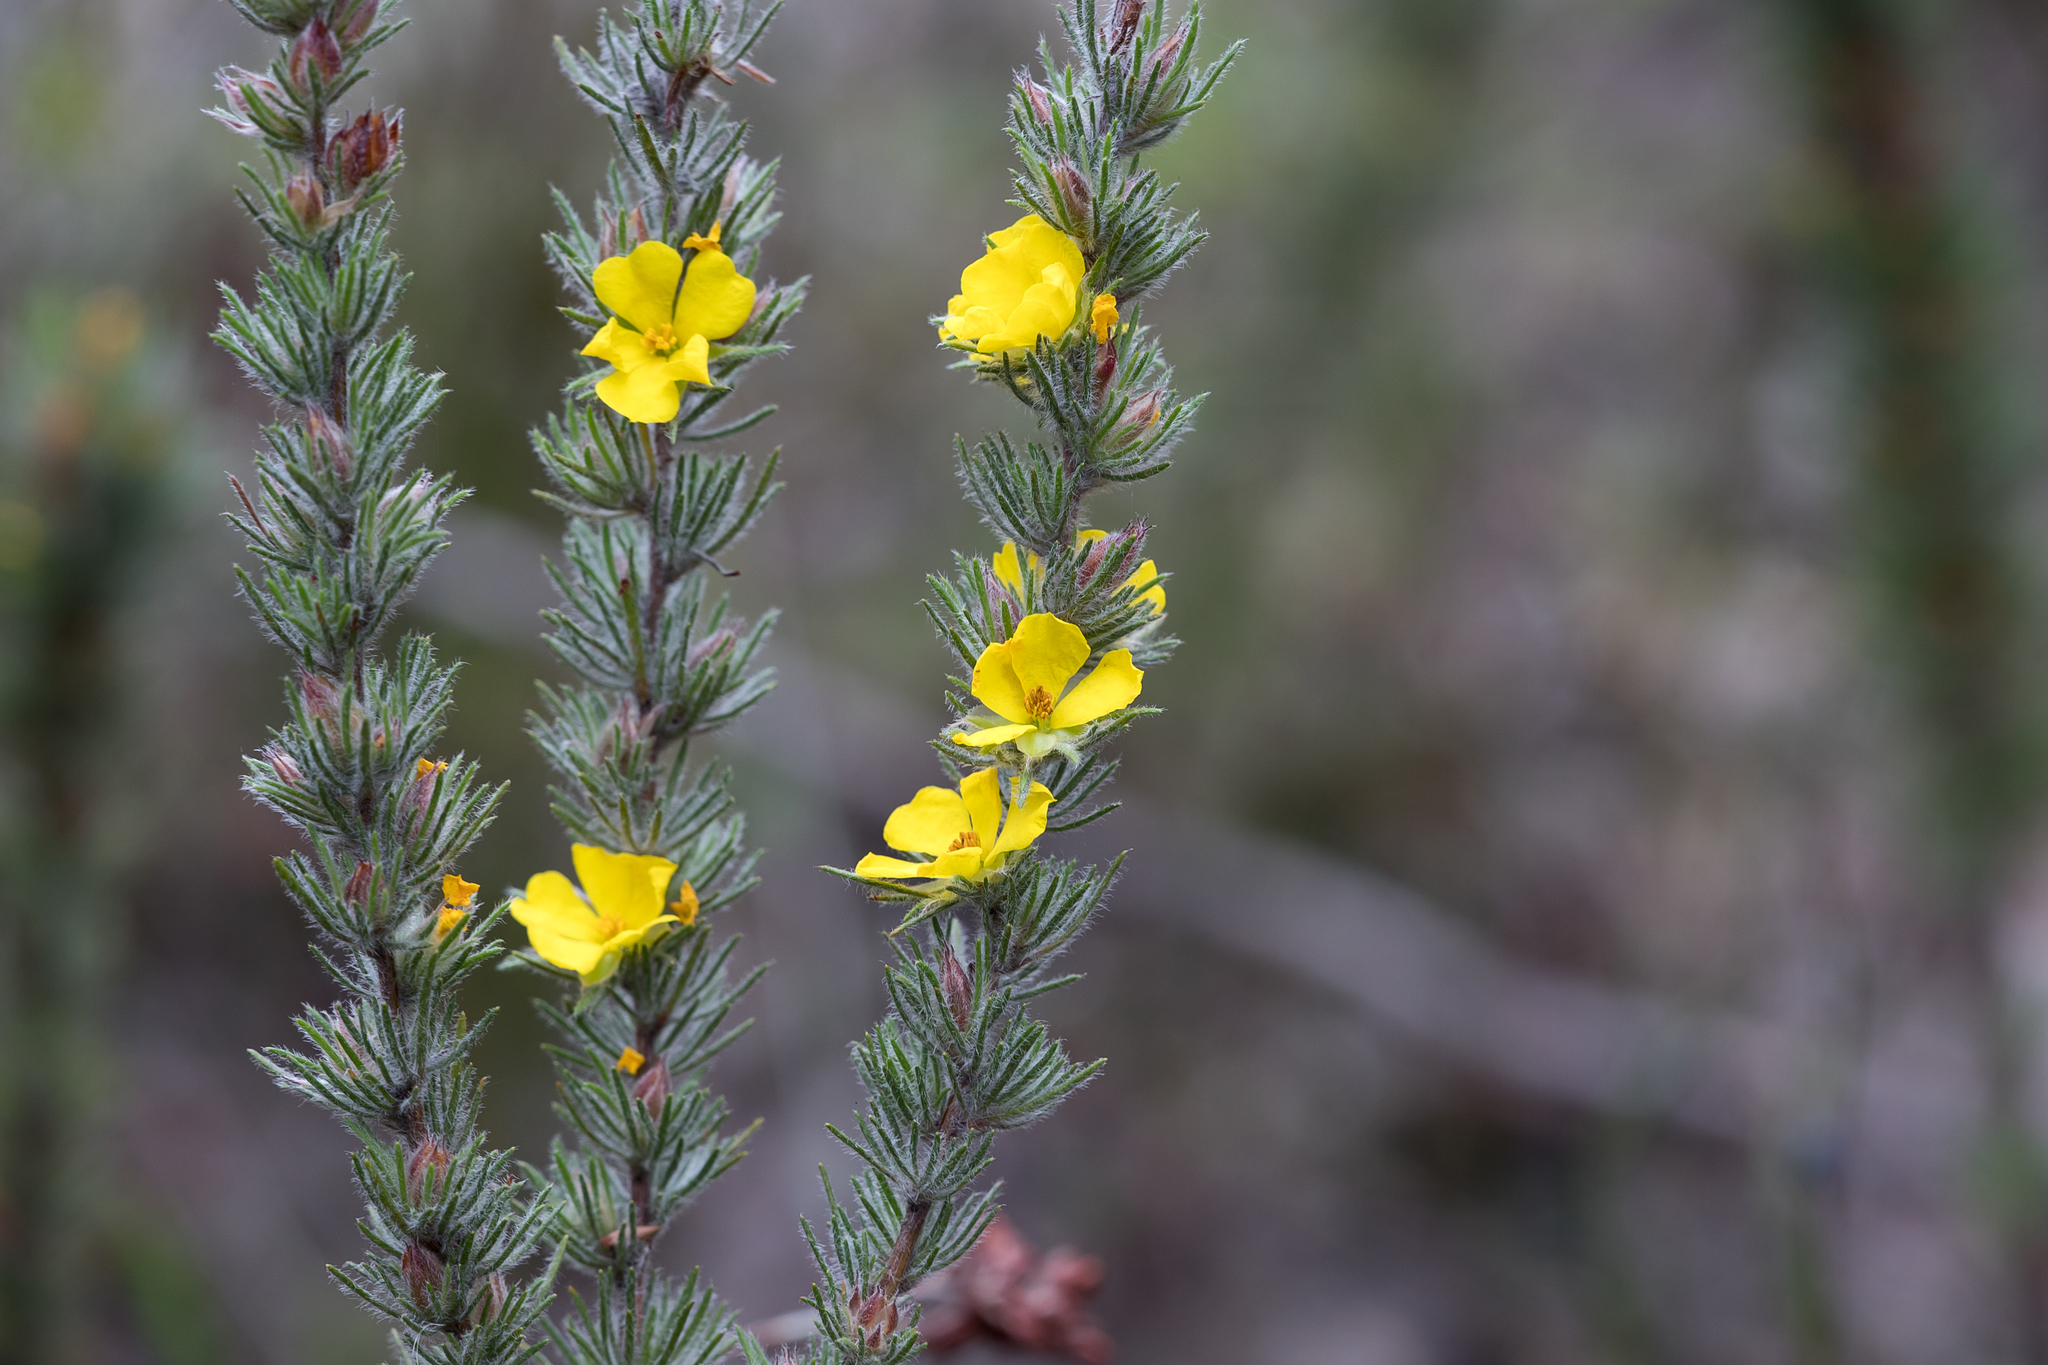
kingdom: Plantae
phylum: Tracheophyta
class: Magnoliopsida
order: Dilleniales
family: Dilleniaceae
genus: Hibbertia
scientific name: Hibbertia fasciculata
